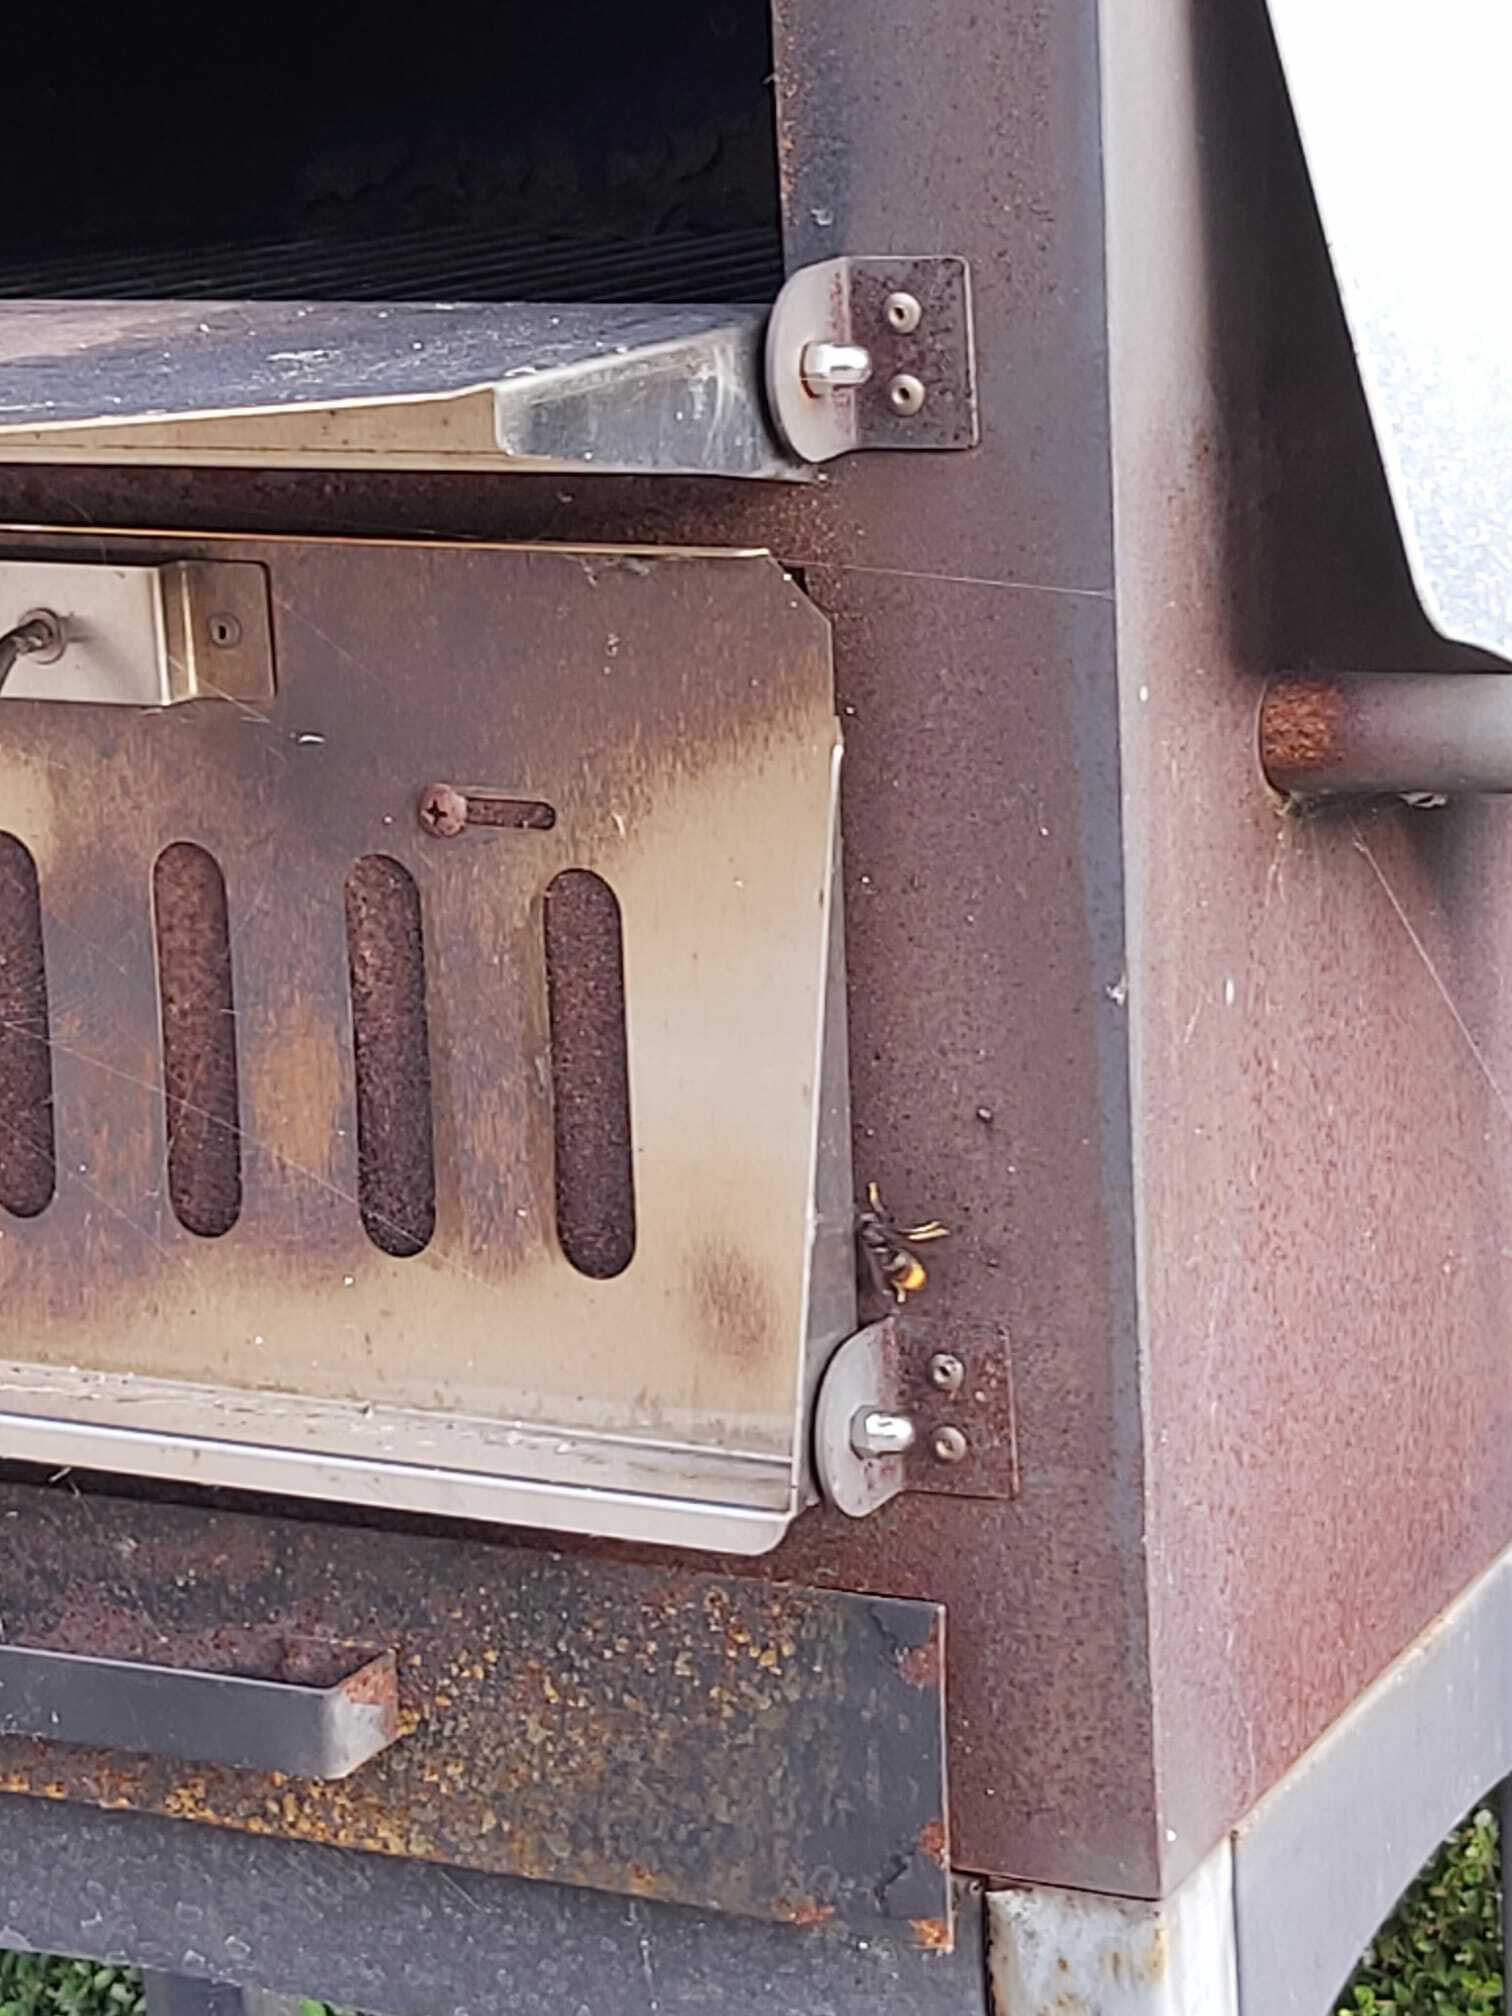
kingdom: Animalia
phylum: Arthropoda
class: Insecta
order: Hymenoptera
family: Vespidae
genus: Vespa
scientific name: Vespa velutina
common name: Asian hornet
